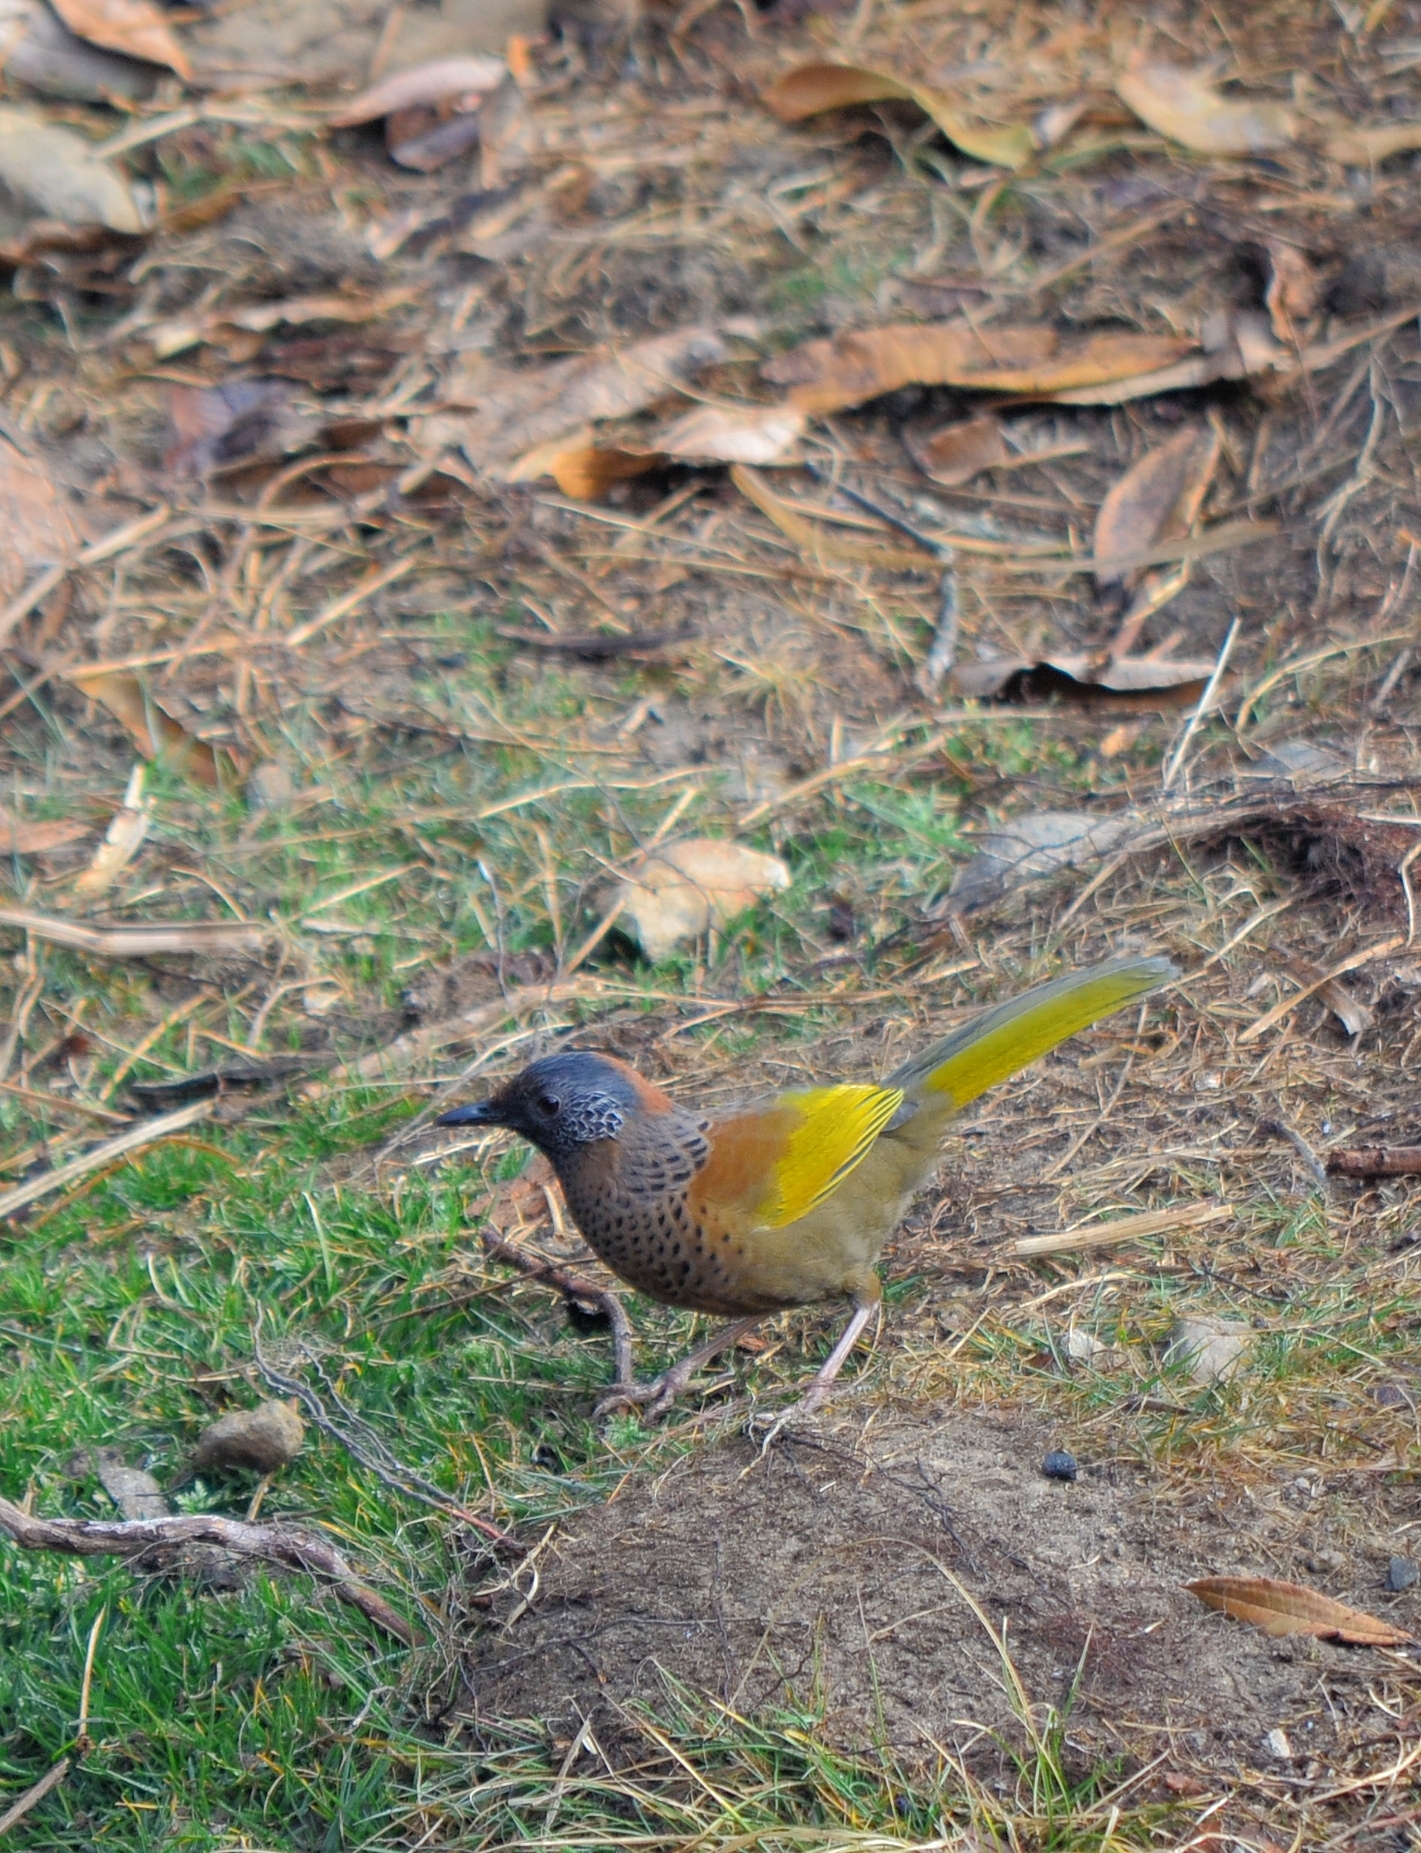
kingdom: Animalia
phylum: Chordata
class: Aves
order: Passeriformes
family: Leiothrichidae
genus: Trochalopteron
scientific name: Trochalopteron erythrocephalum
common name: Chestnut-crowned laughingthrush
